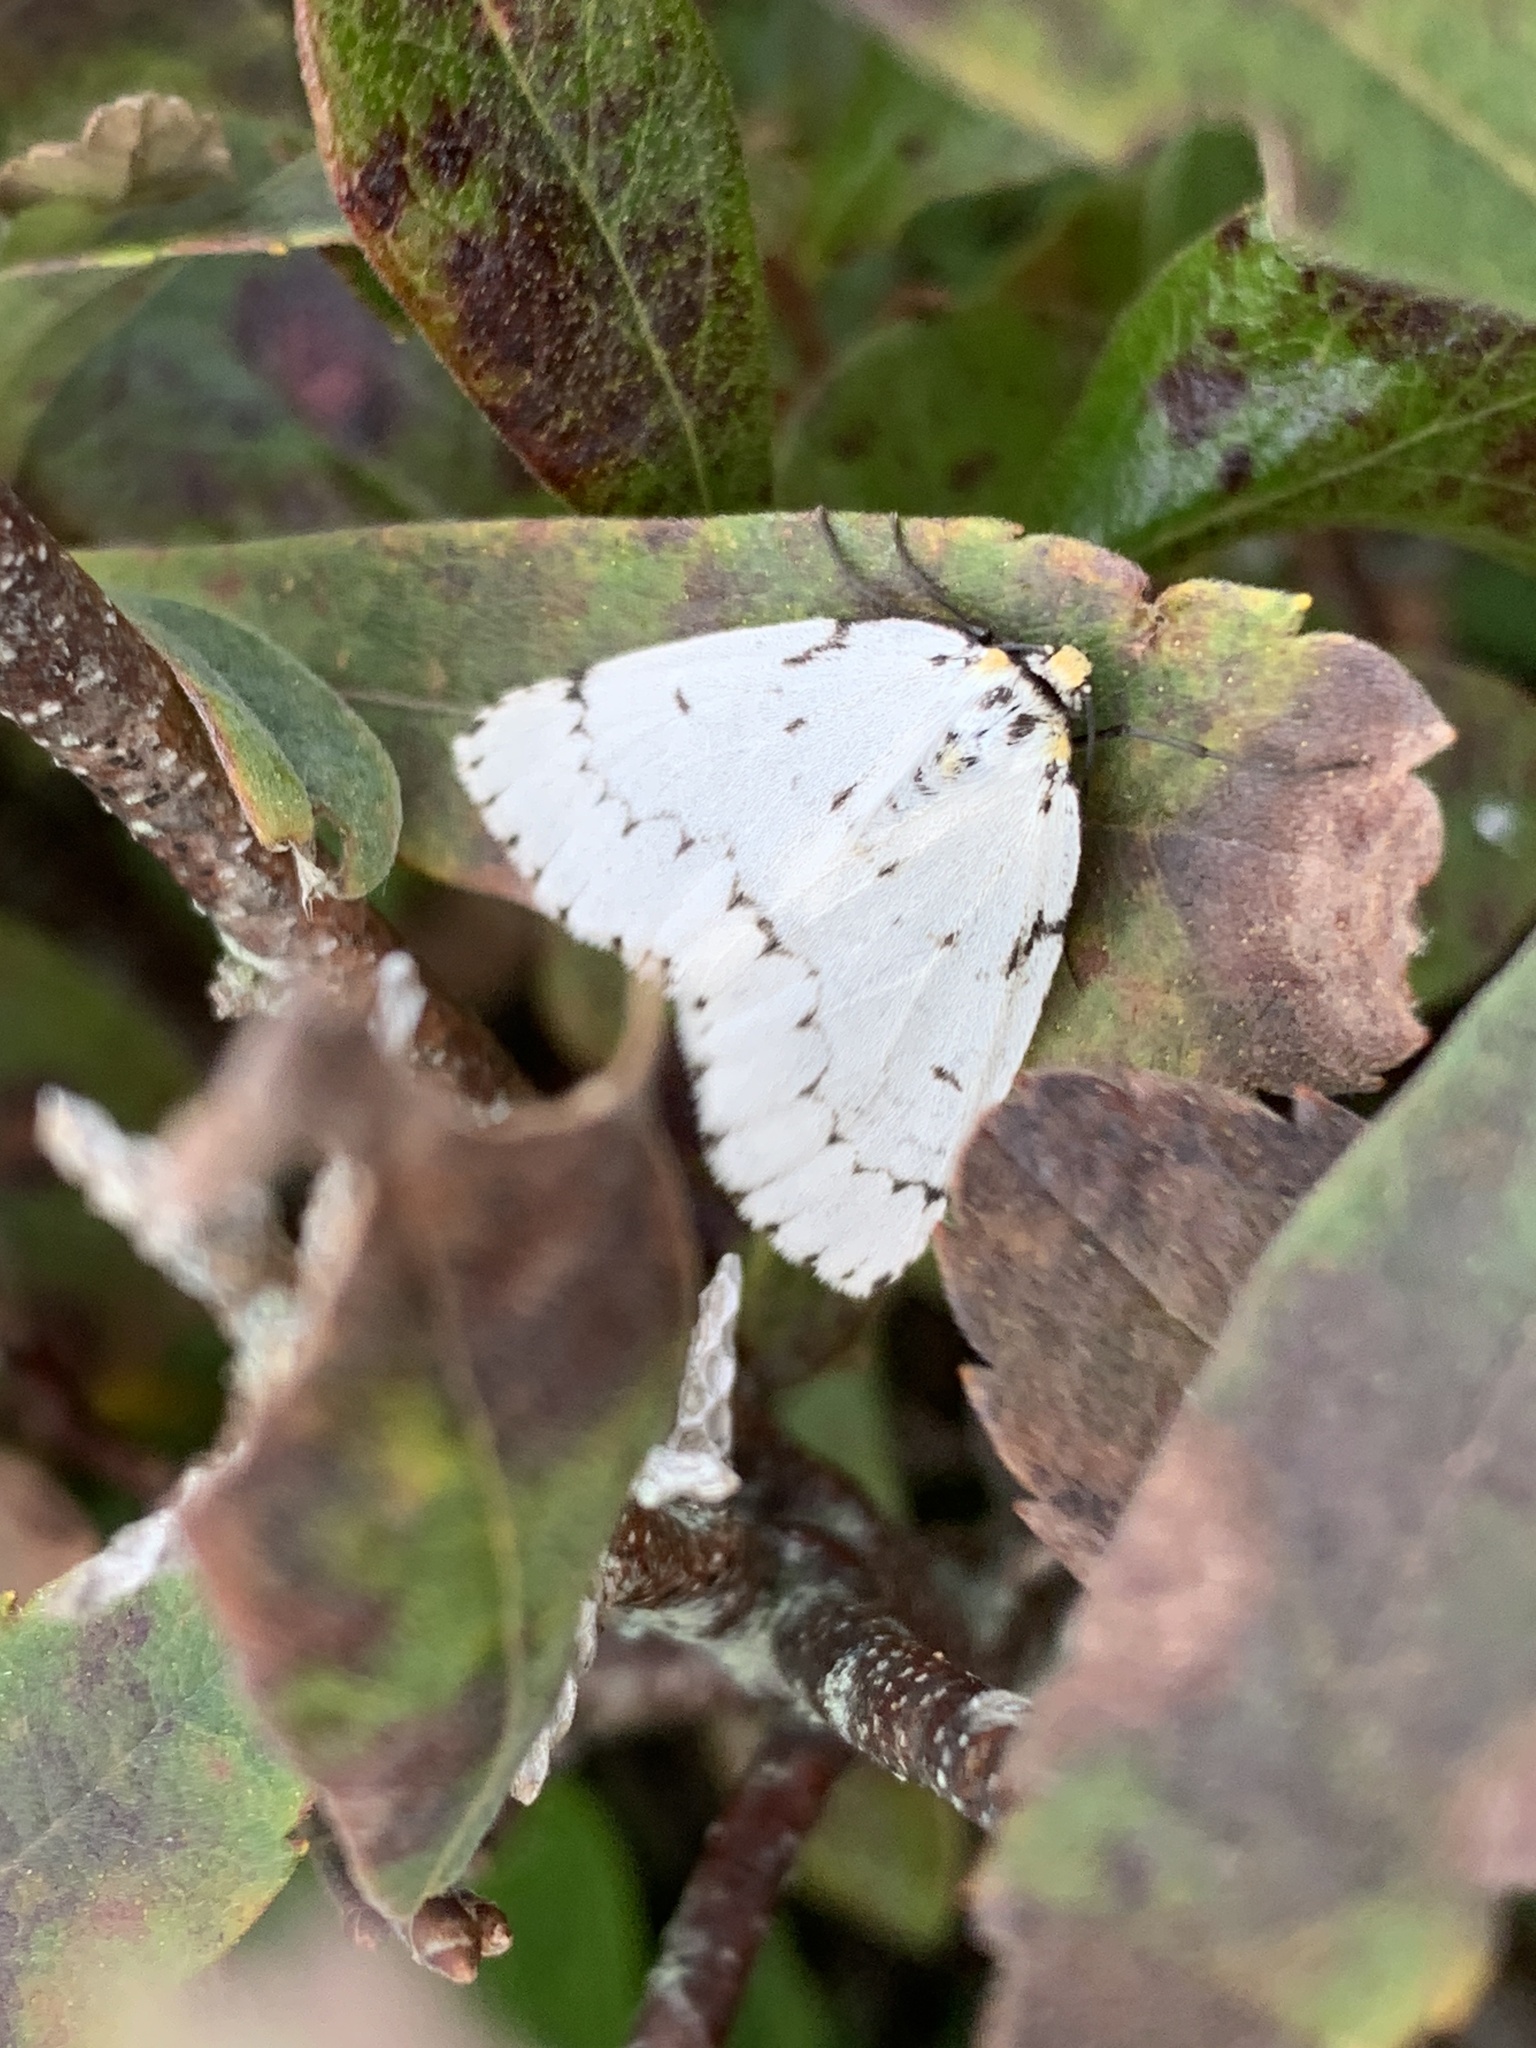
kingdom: Animalia
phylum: Arthropoda
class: Insecta
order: Lepidoptera
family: Geometridae
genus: Cingilia
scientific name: Cingilia catenaria
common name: Chain-dotted geometer
